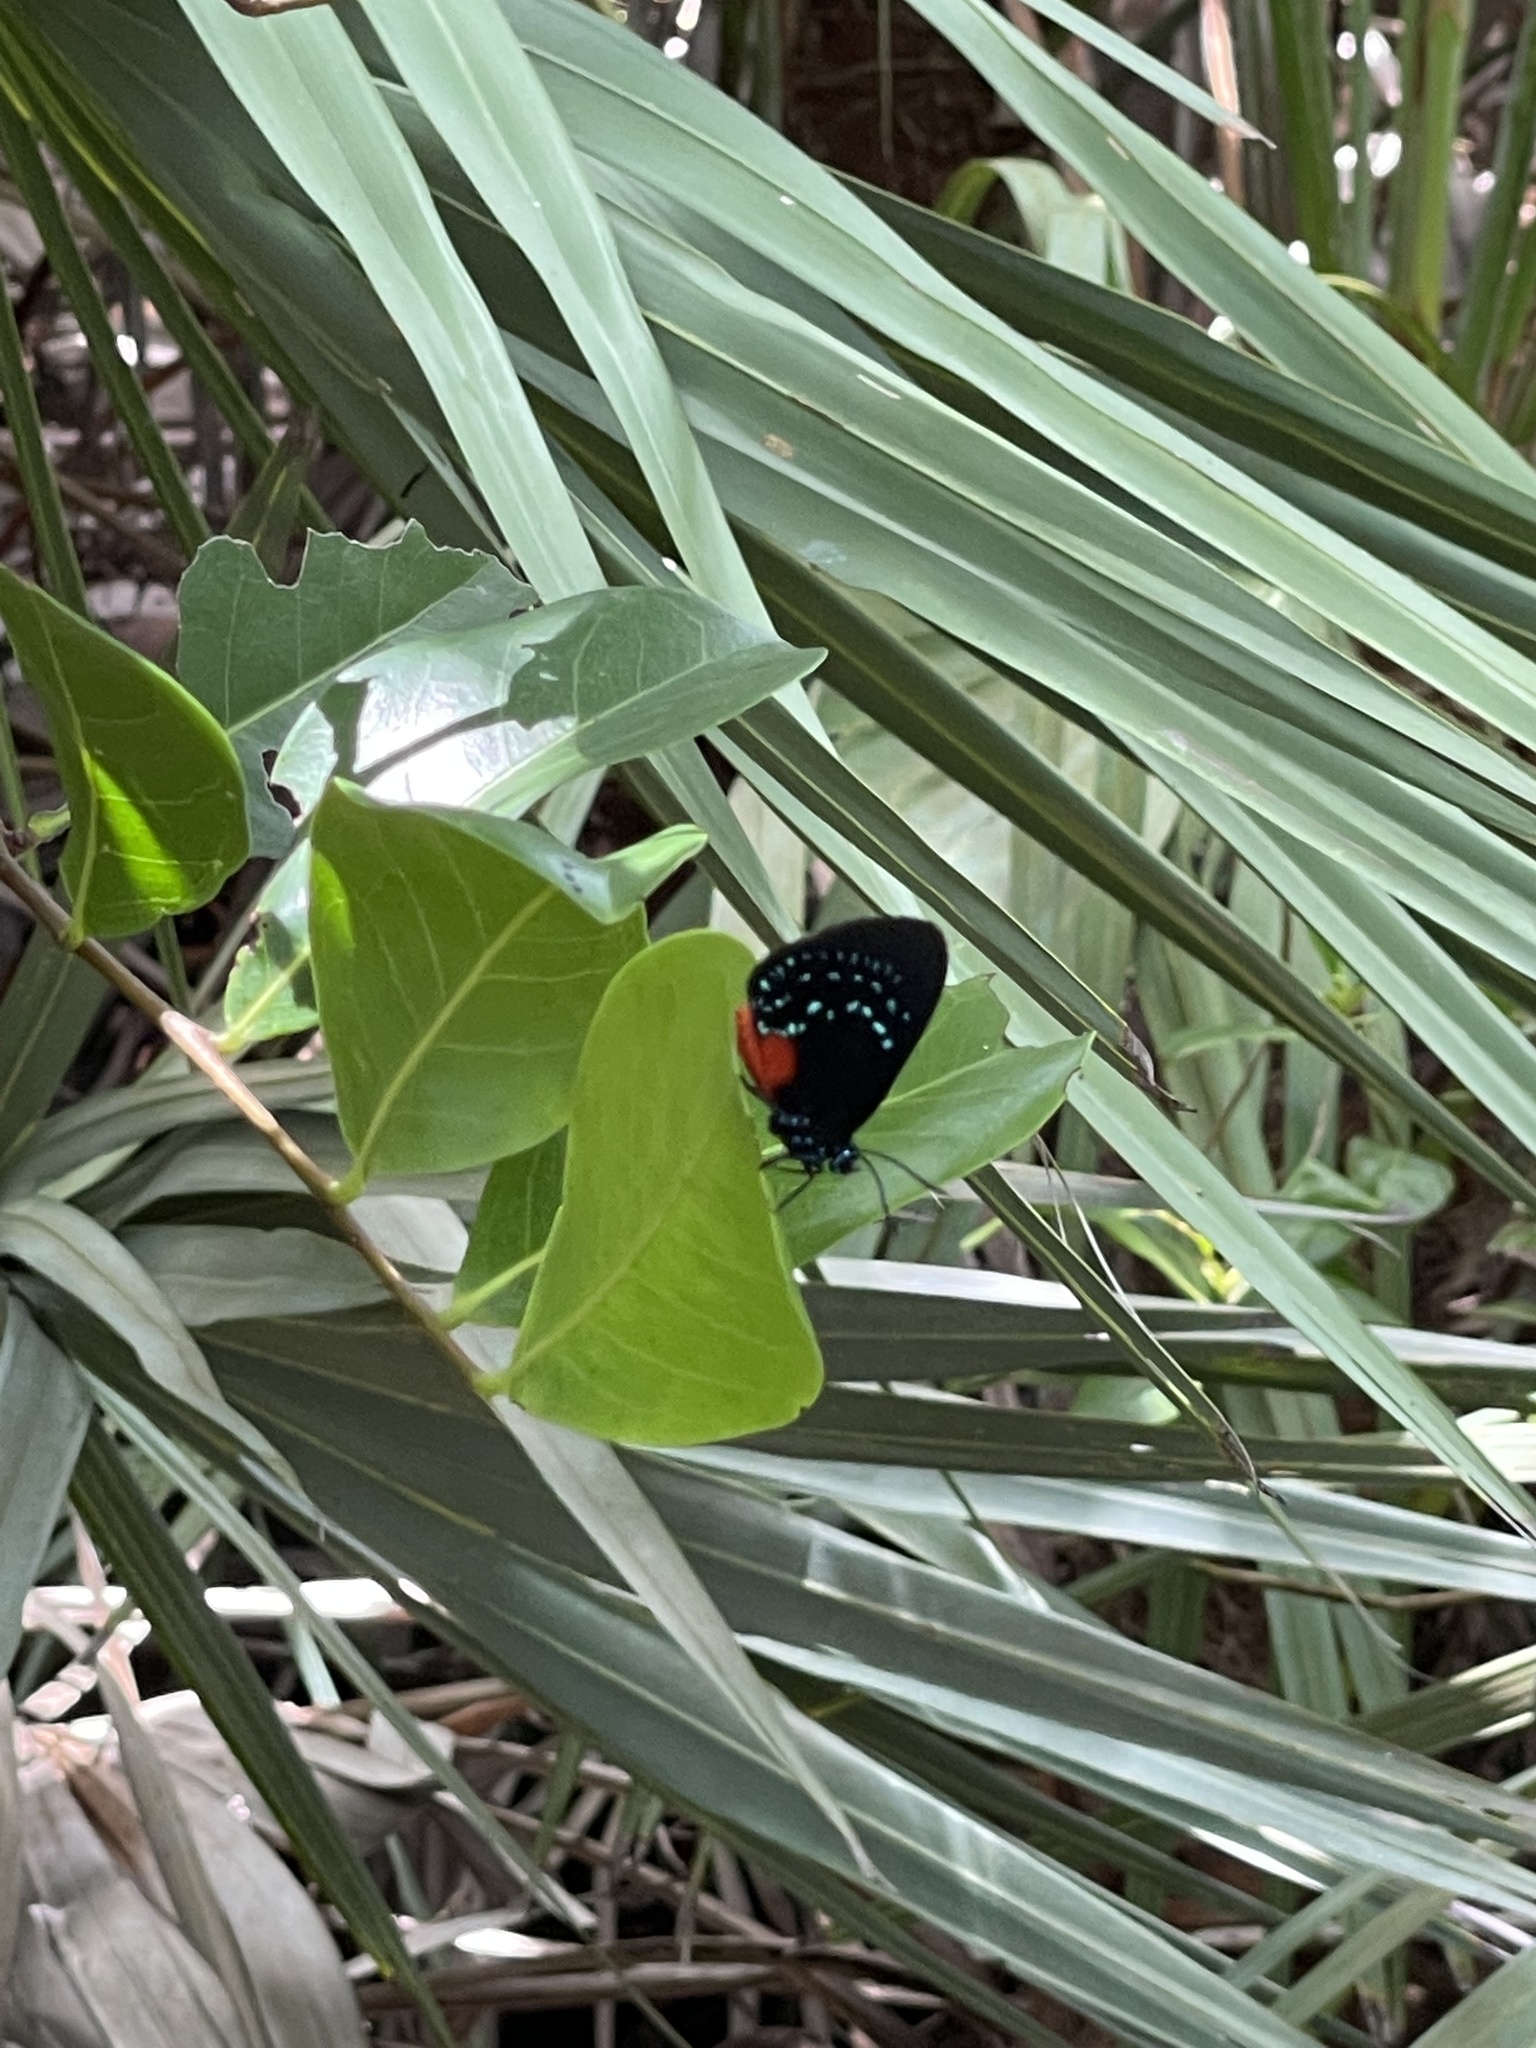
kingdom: Animalia
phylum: Arthropoda
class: Insecta
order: Lepidoptera
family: Lycaenidae
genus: Eumaeus
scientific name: Eumaeus atala
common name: Atala
